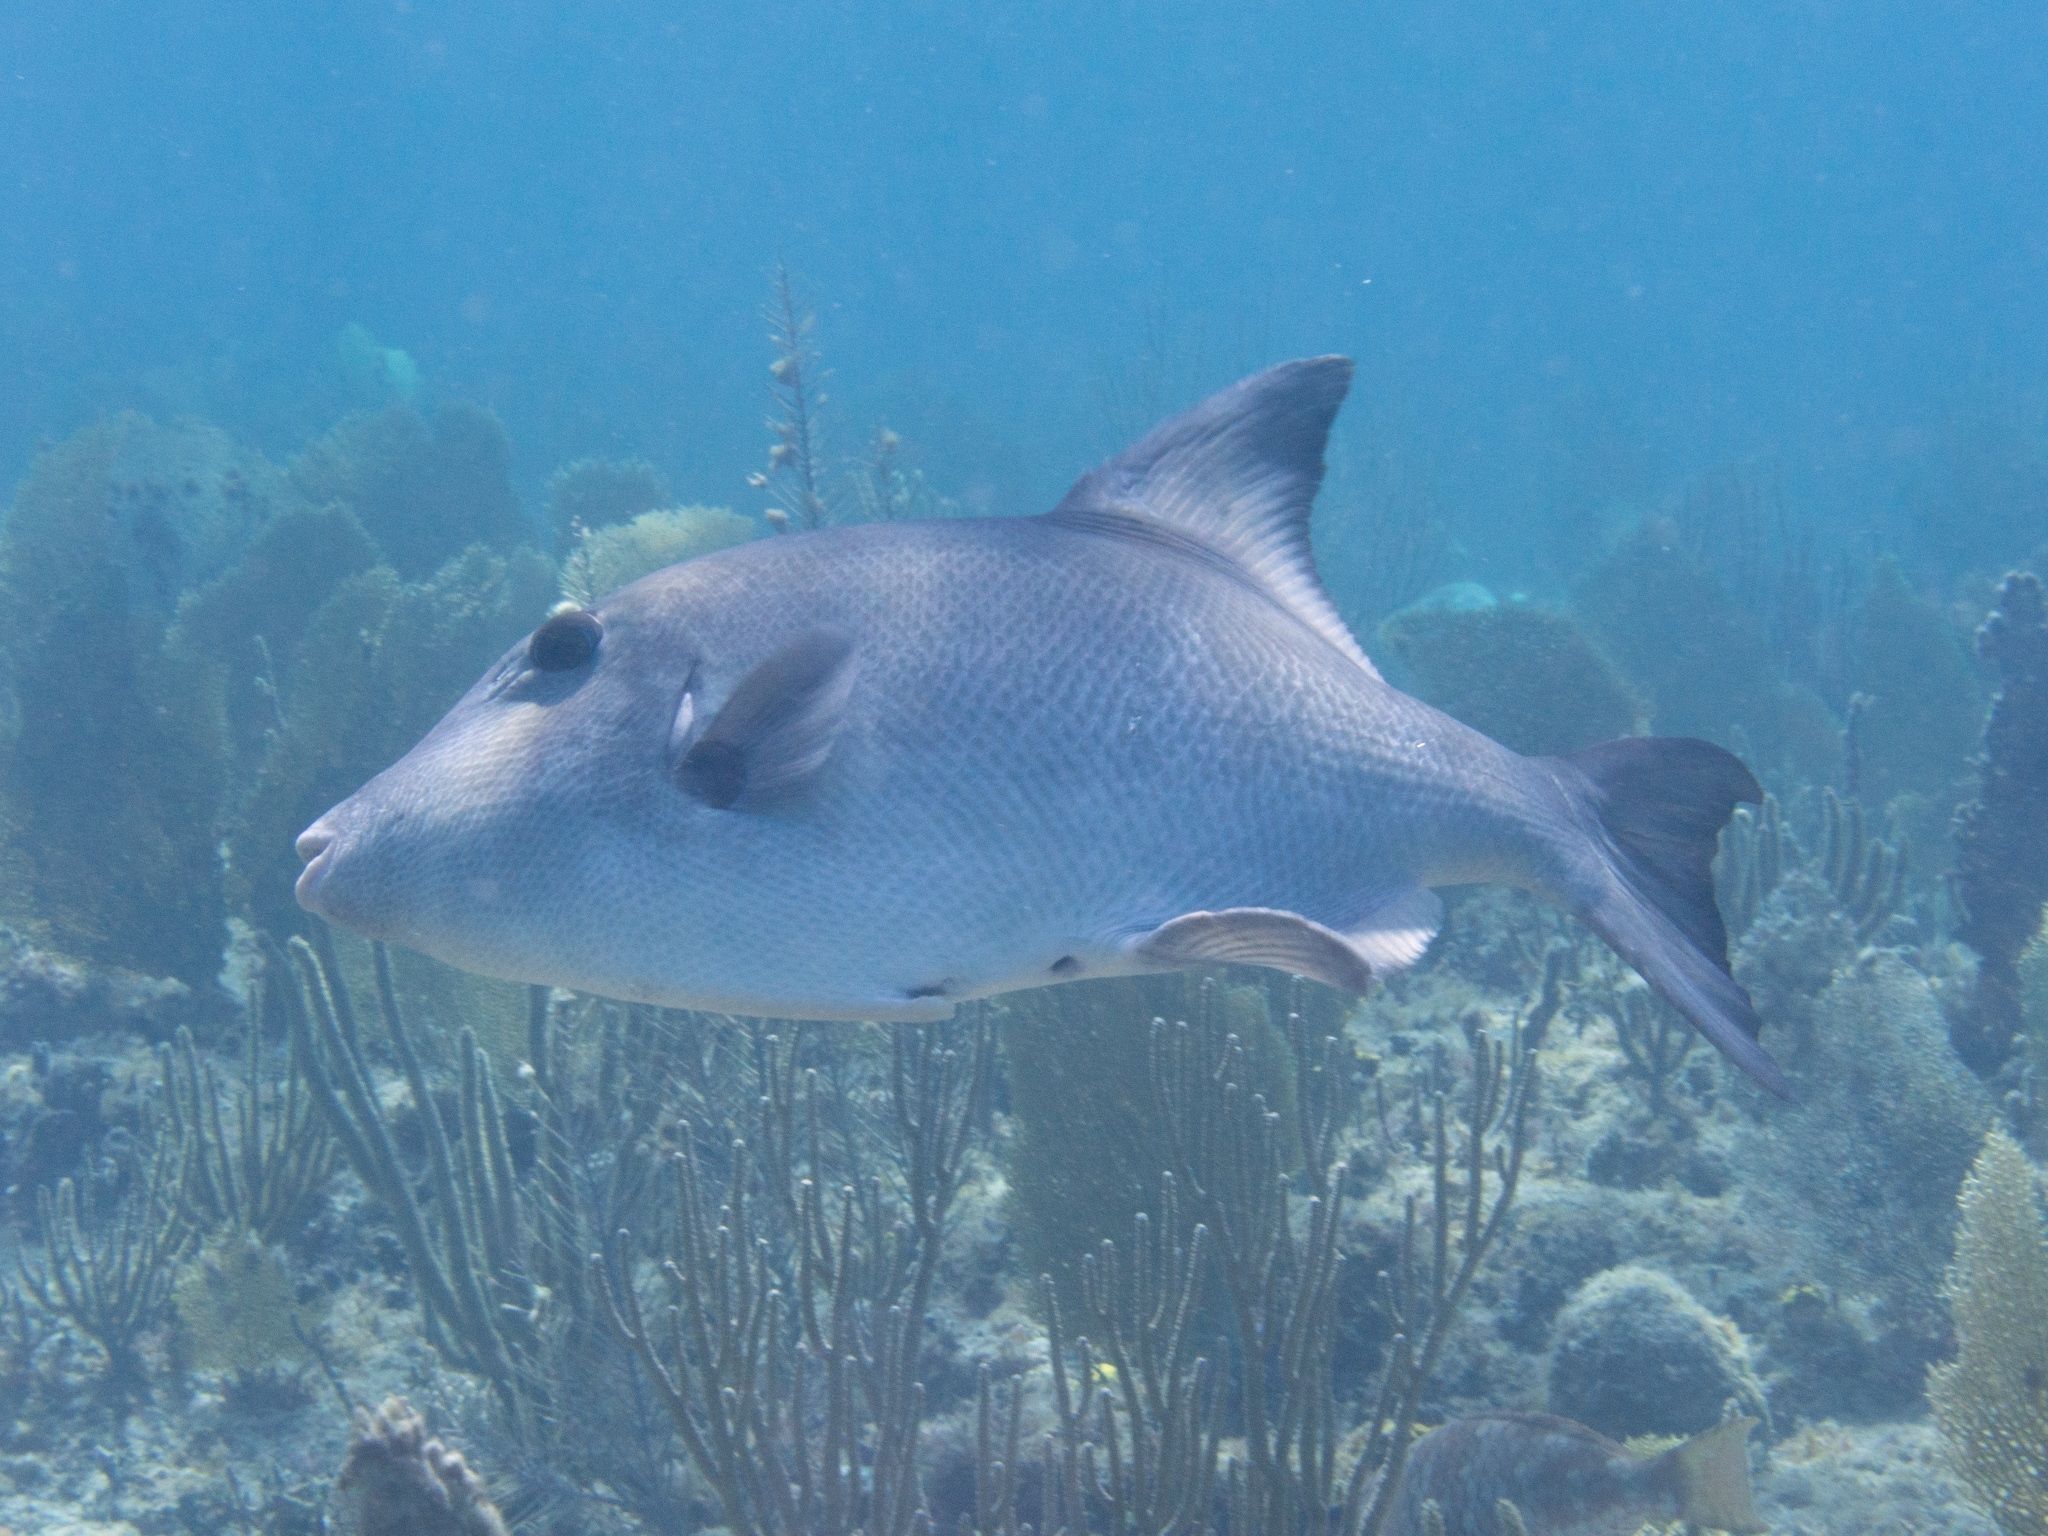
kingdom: Animalia
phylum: Chordata
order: Tetraodontiformes
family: Balistidae
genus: Canthidermis
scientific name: Canthidermis sufflamen
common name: Ocean triggerfish
